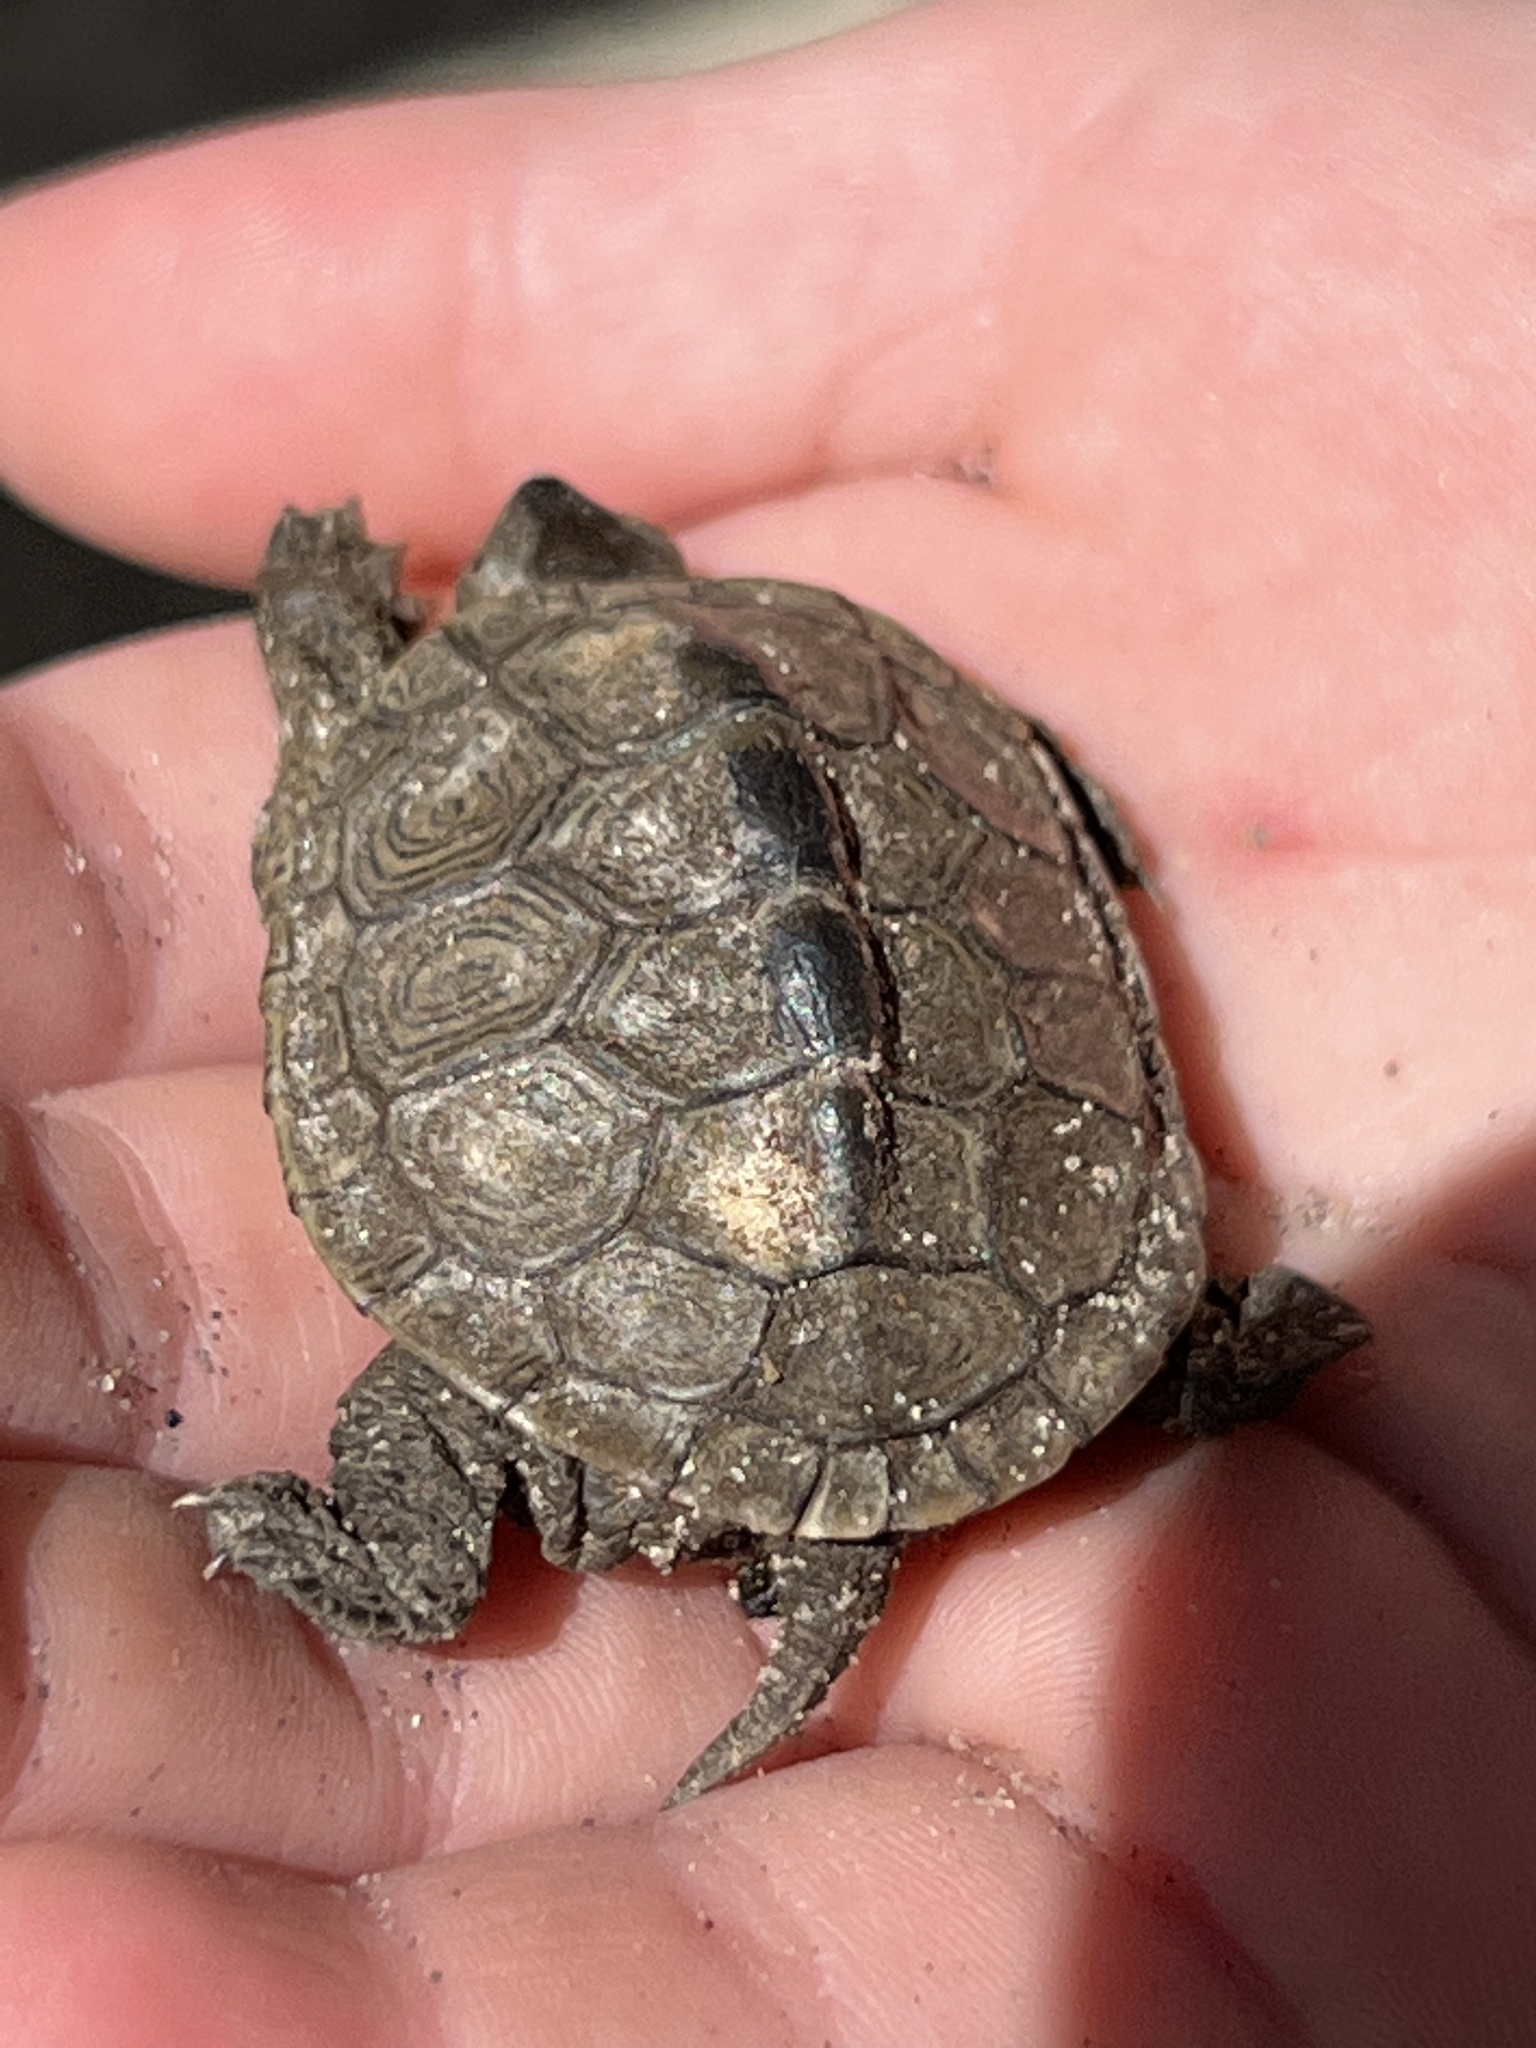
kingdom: Animalia
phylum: Chordata
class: Testudines
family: Emydidae
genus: Malaclemys
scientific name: Malaclemys terrapin
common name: Diamondback terrapin
